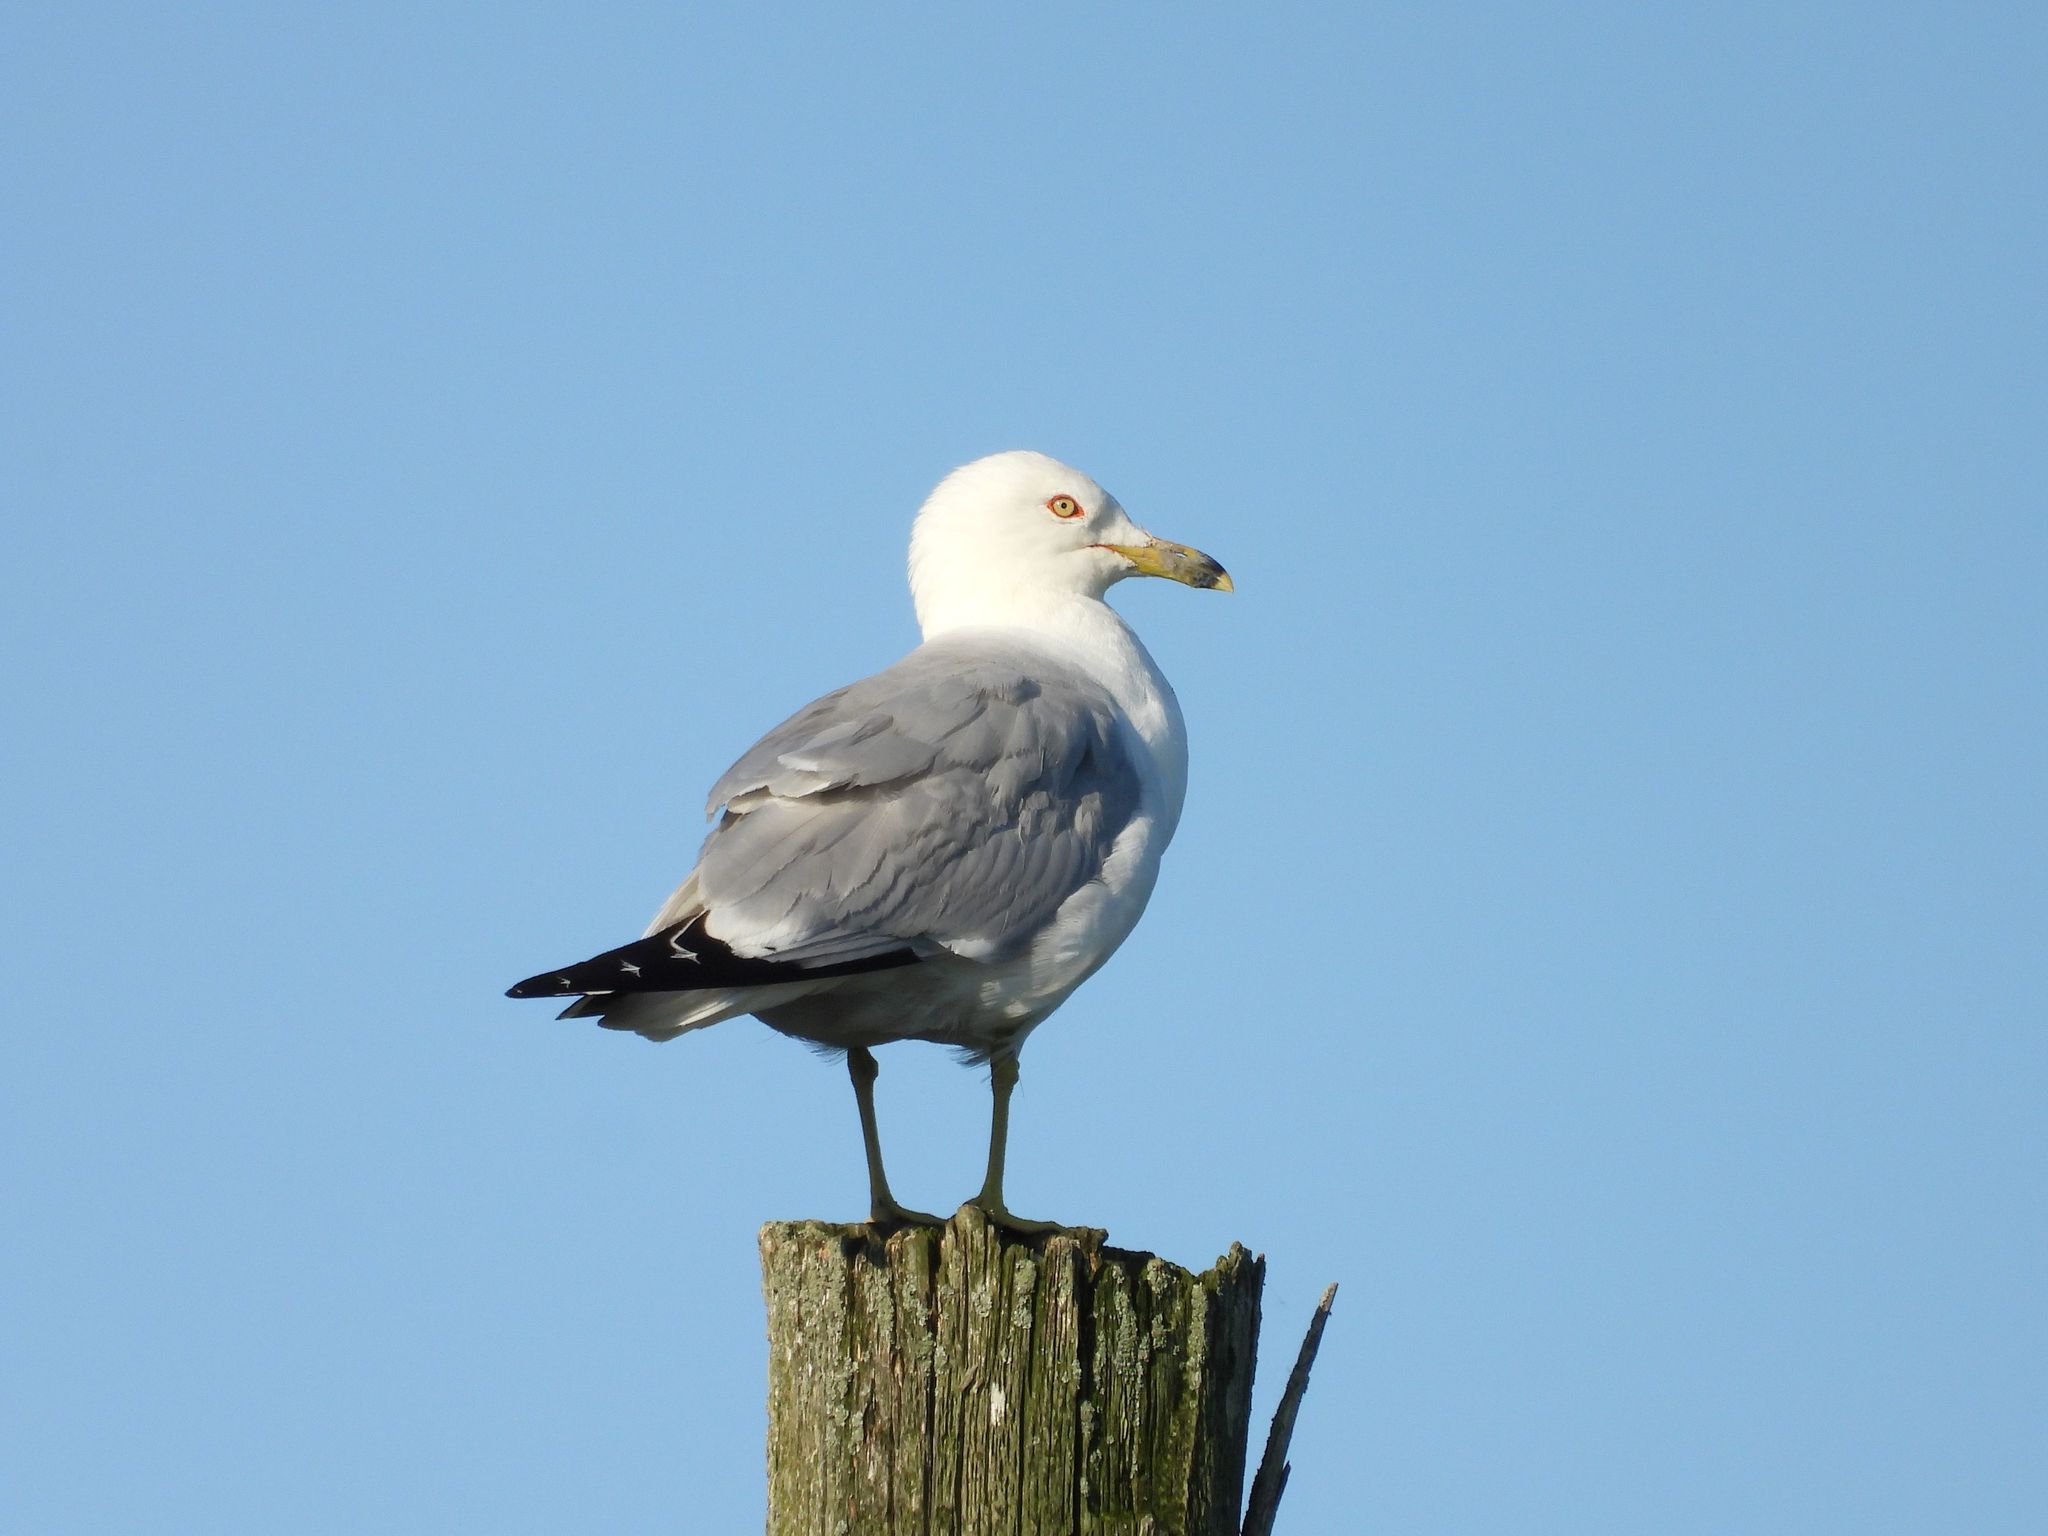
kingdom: Animalia
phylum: Chordata
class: Aves
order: Charadriiformes
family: Laridae
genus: Larus
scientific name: Larus delawarensis
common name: Ring-billed gull
